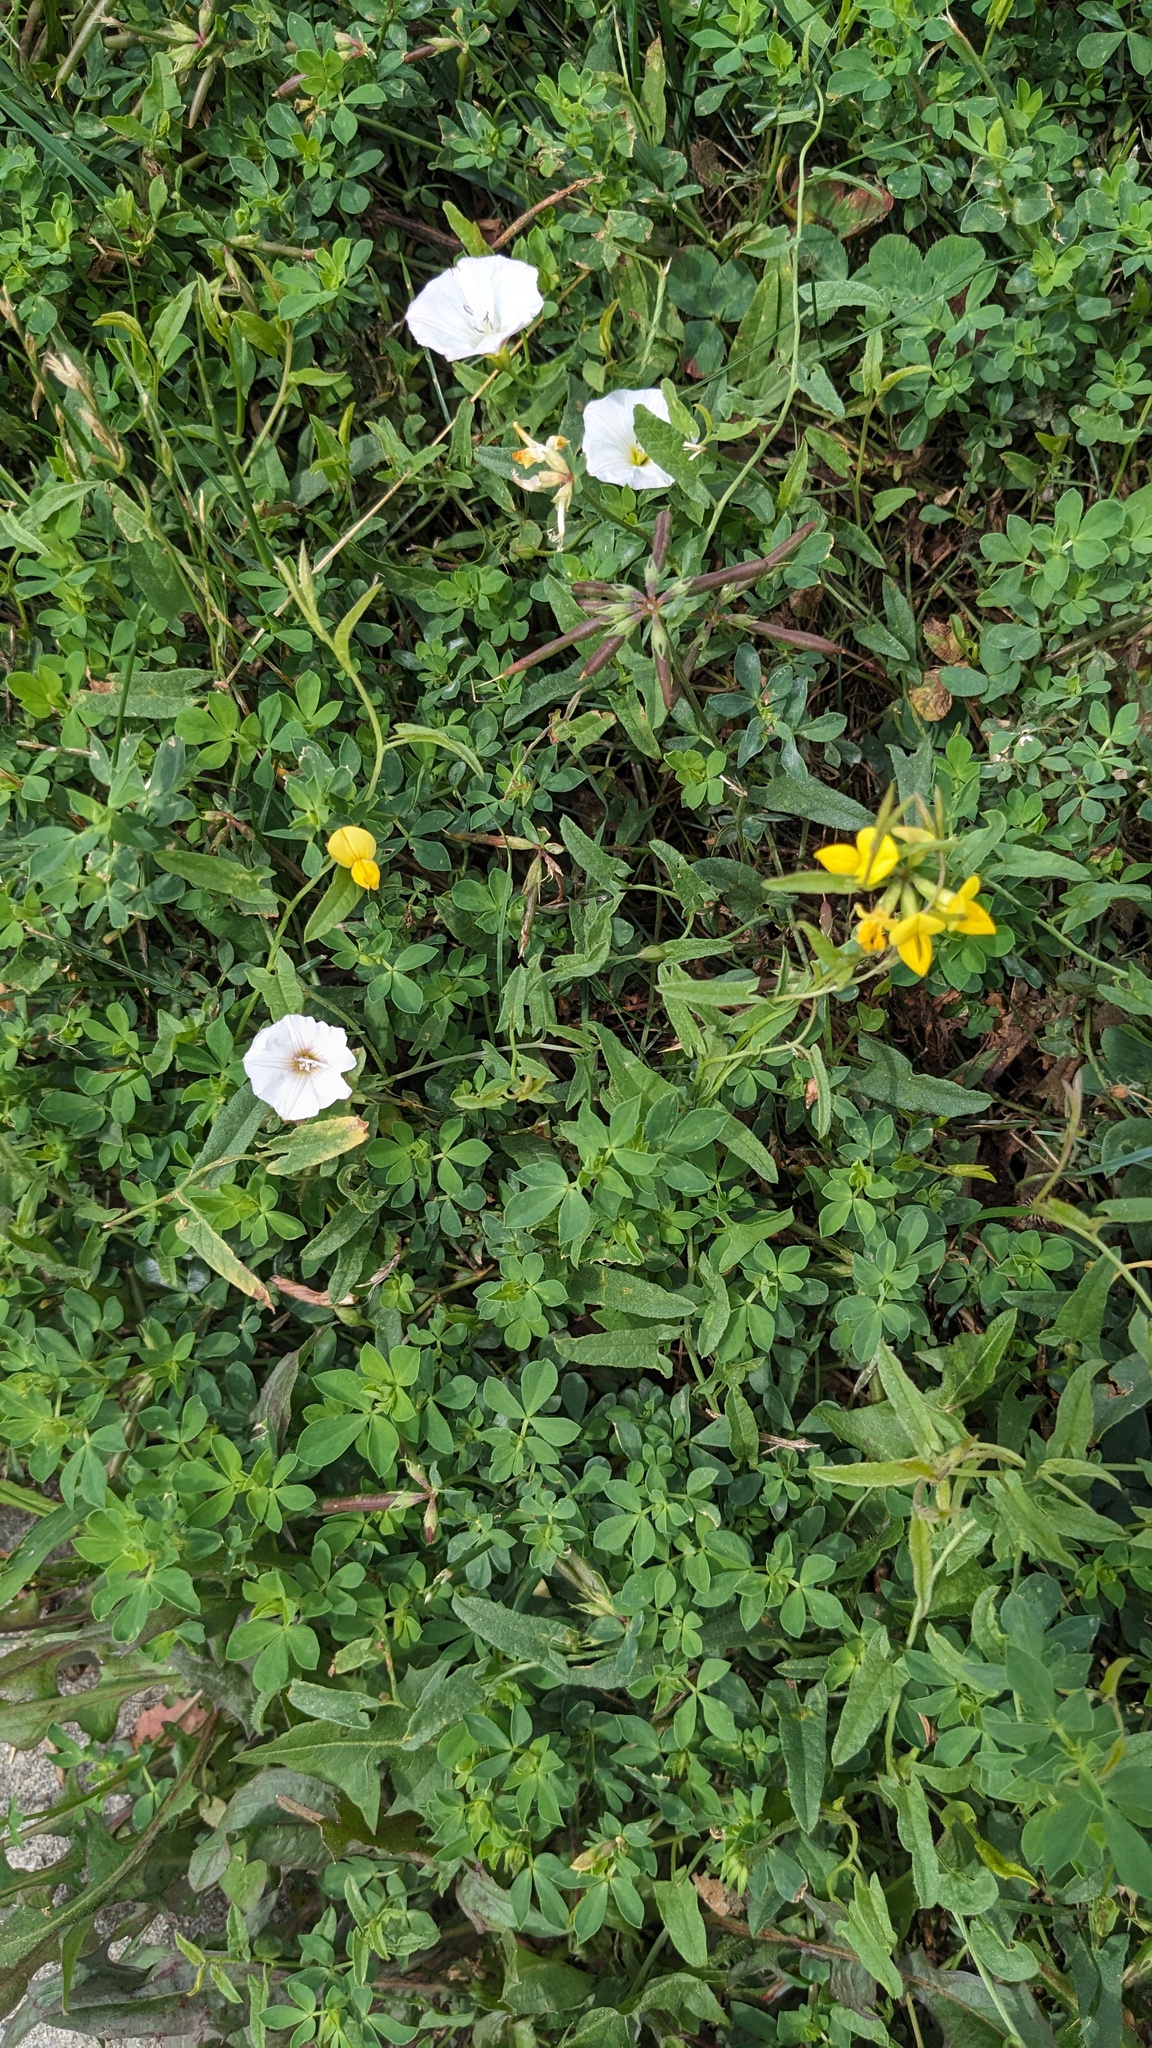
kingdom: Plantae
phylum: Tracheophyta
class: Magnoliopsida
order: Fabales
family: Fabaceae
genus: Lotus
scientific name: Lotus corniculatus
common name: Common bird's-foot-trefoil
